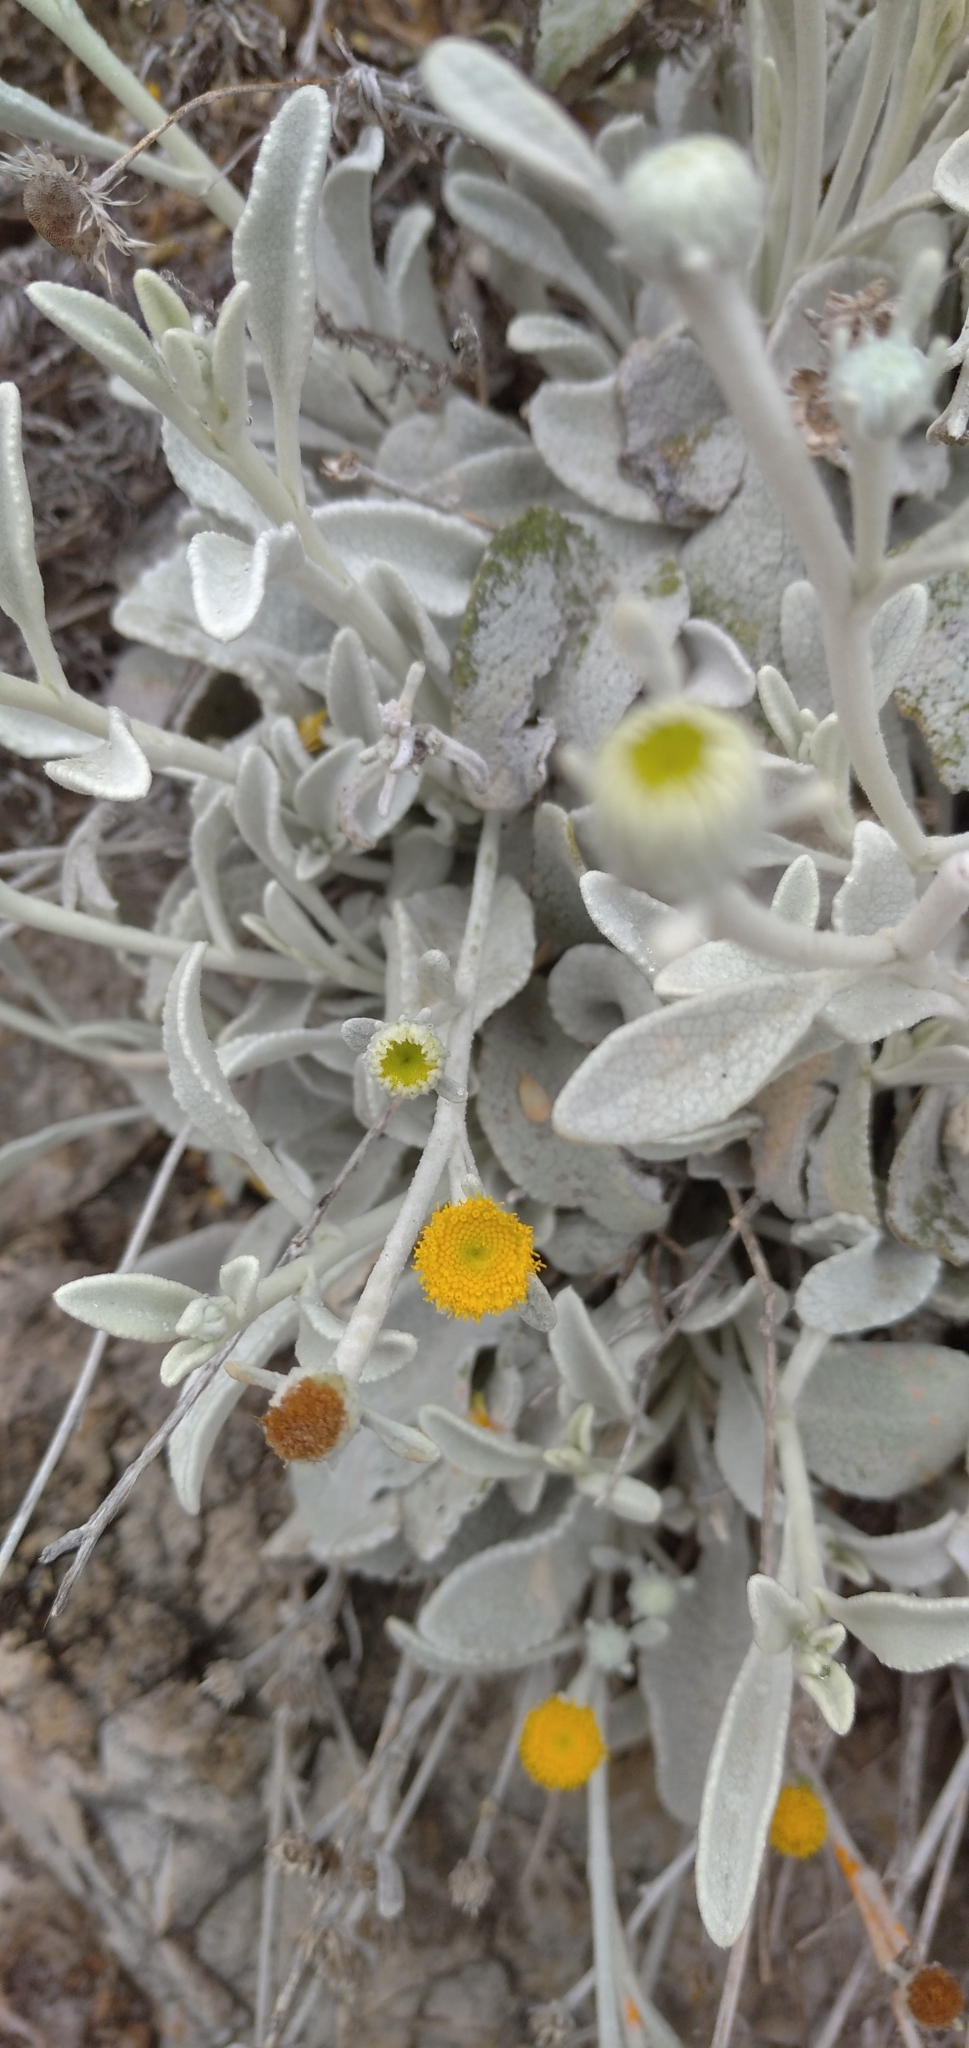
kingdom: Plantae
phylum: Tracheophyta
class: Magnoliopsida
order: Asterales
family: Asteraceae
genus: Pentanema
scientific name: Pentanema verbascifolium
